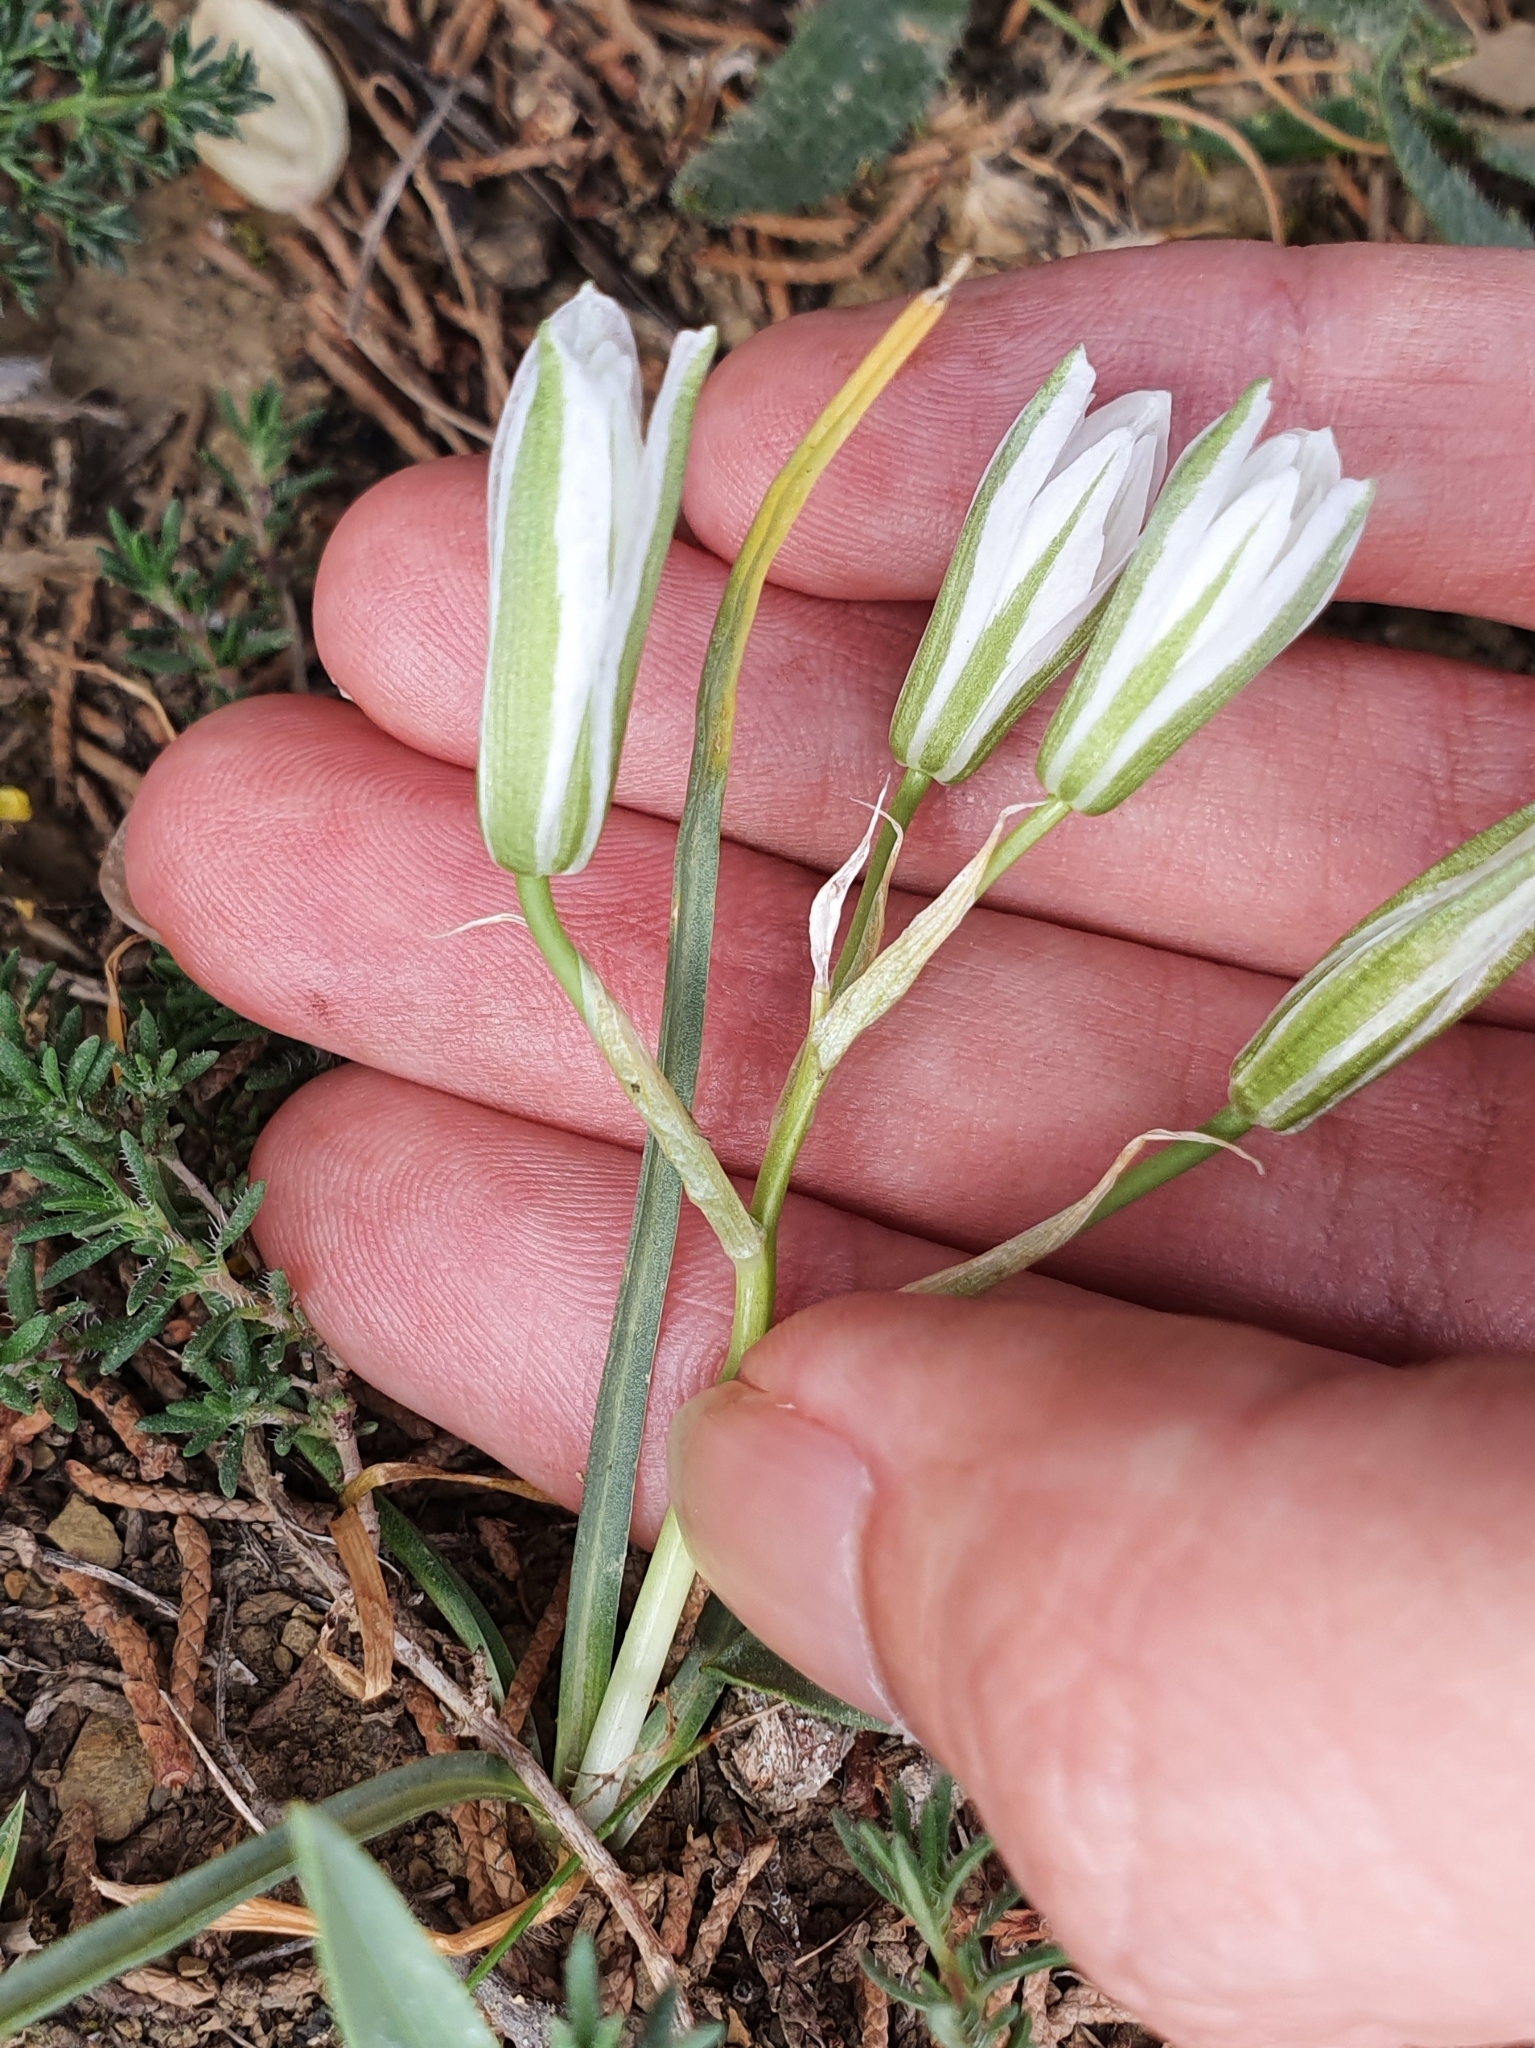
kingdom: Plantae
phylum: Tracheophyta
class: Liliopsida
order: Asparagales
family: Asparagaceae
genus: Ornithogalum
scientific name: Ornithogalum baeticum
